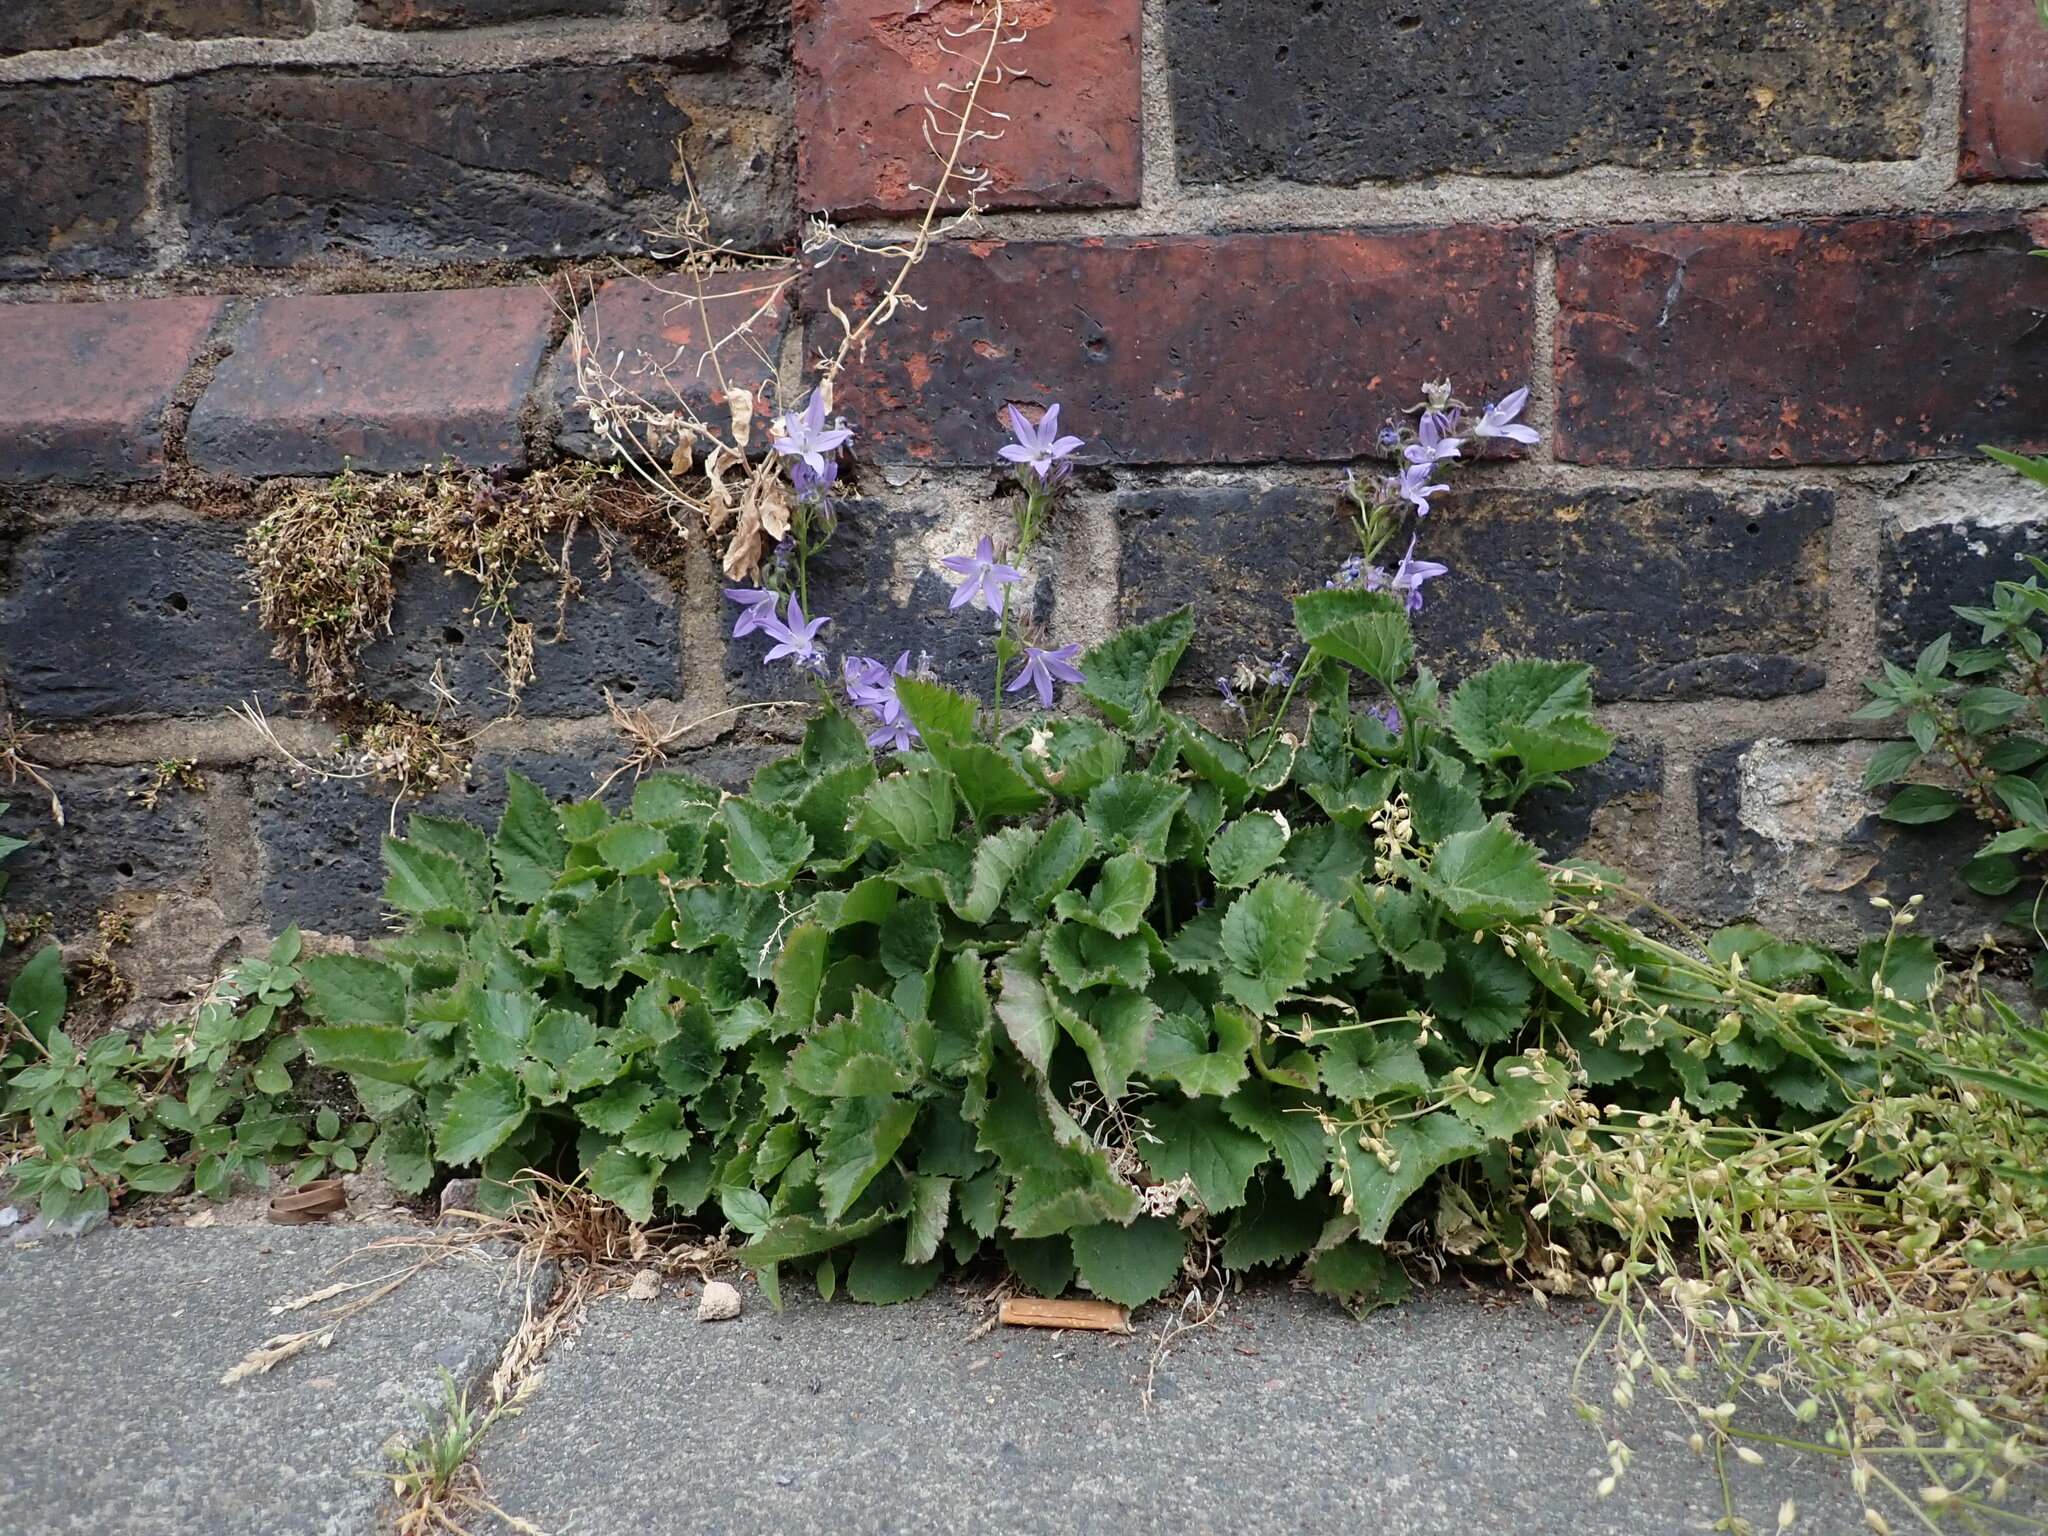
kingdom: Plantae
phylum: Tracheophyta
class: Magnoliopsida
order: Asterales
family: Campanulaceae
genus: Campanula
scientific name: Campanula poscharskyana
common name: Trailing bellflower
